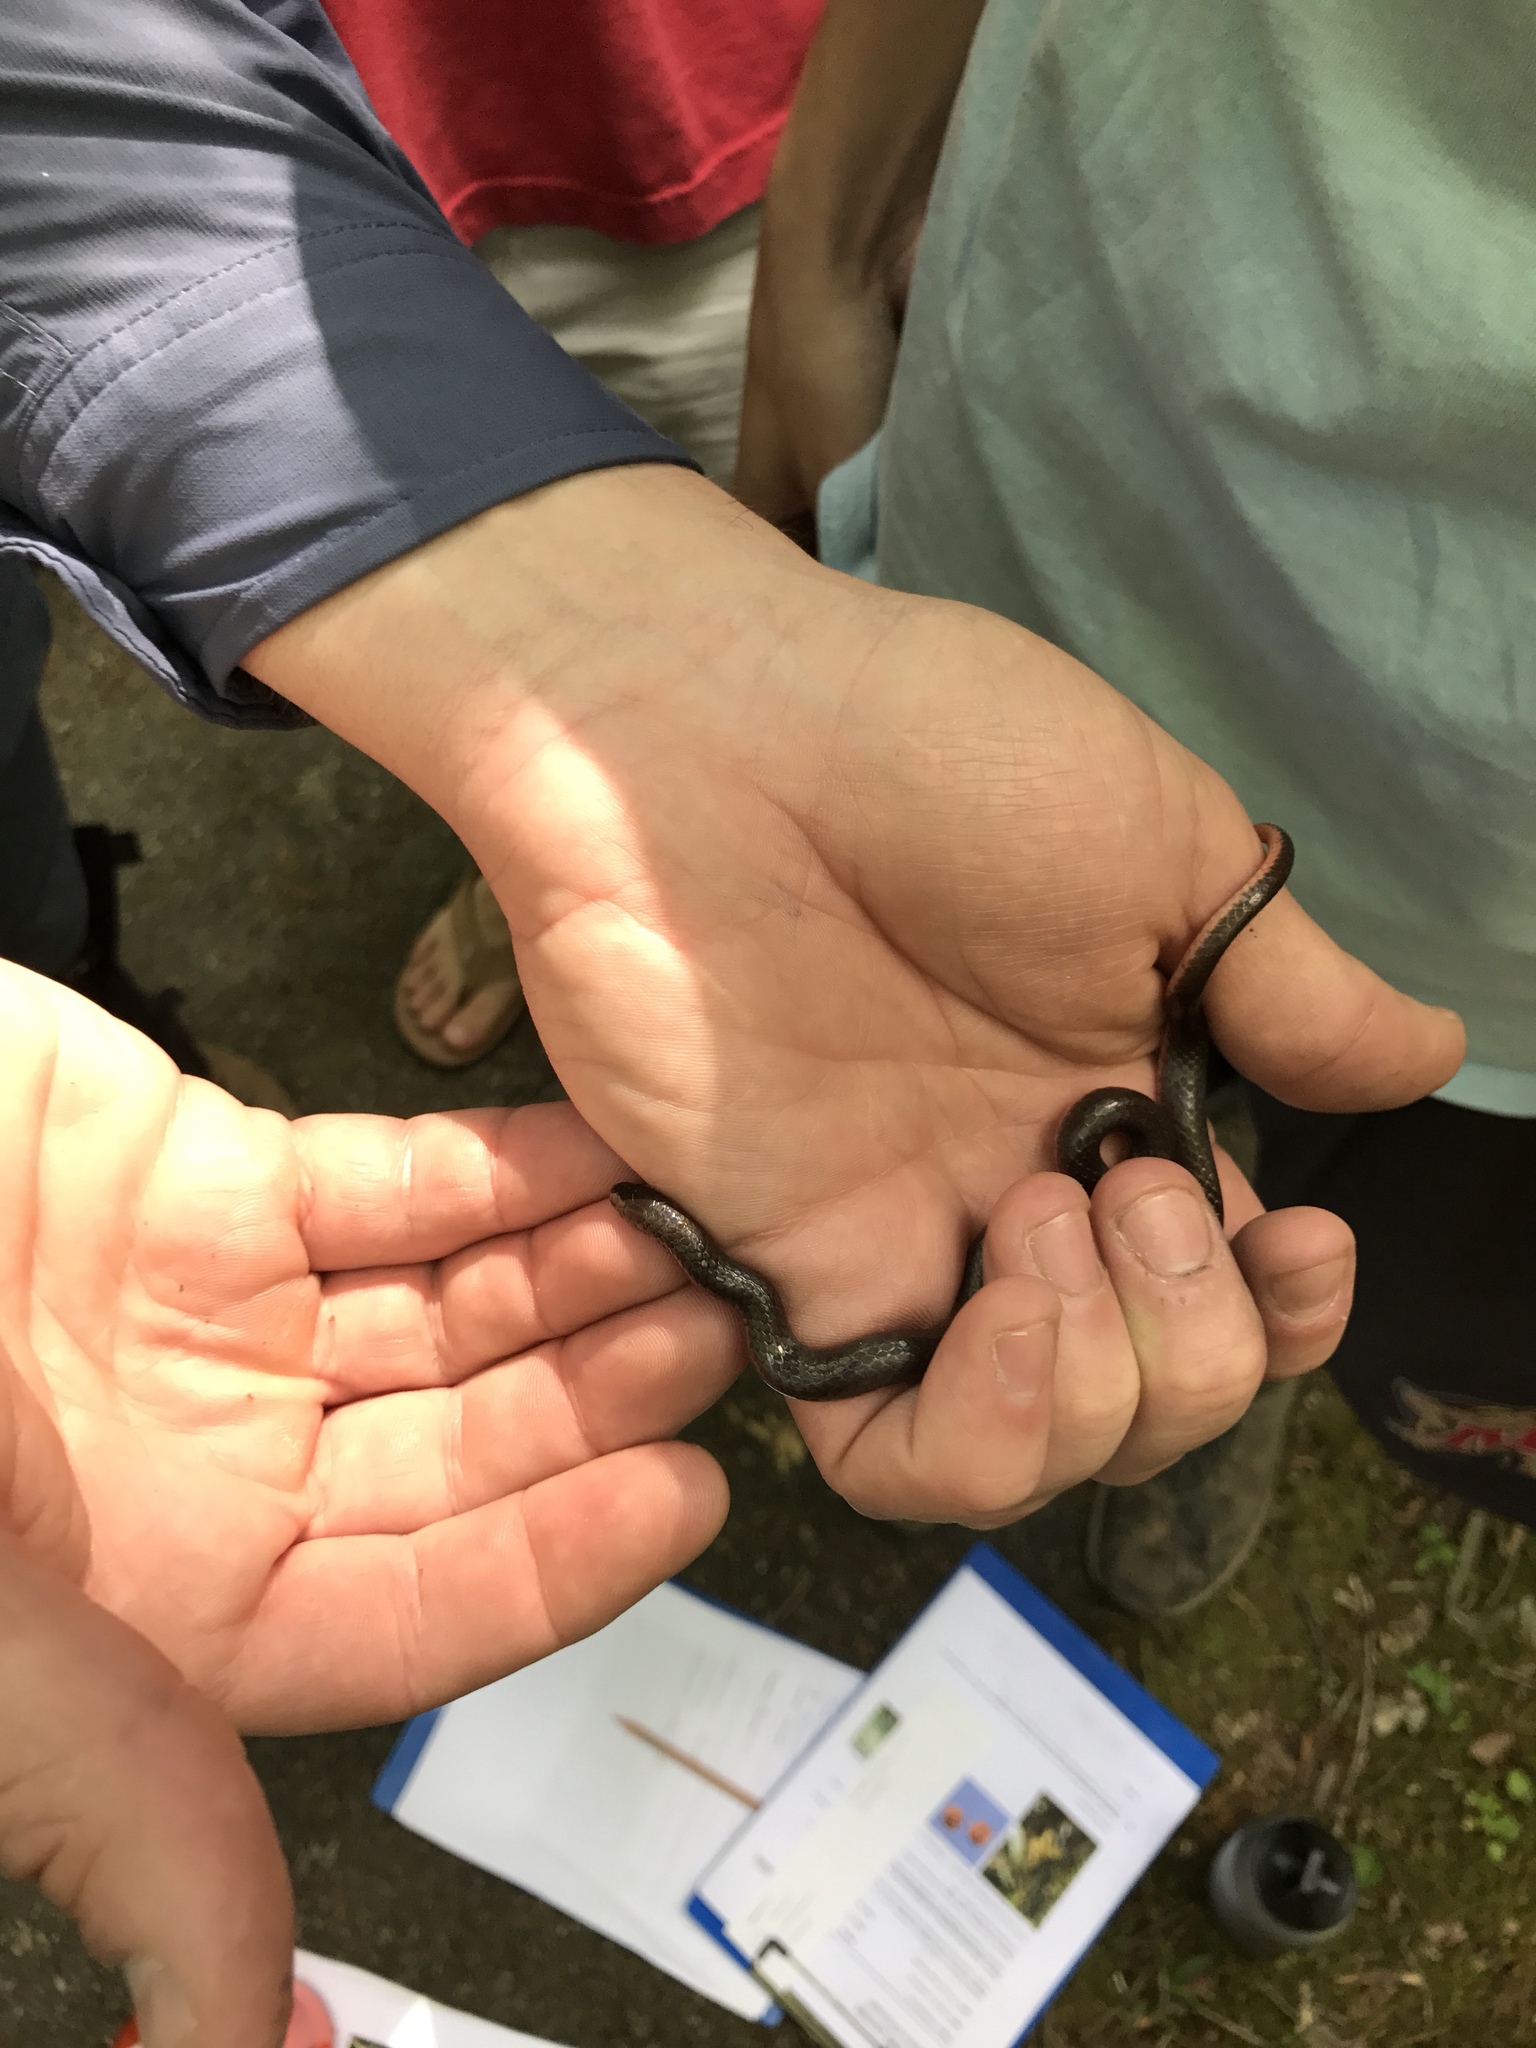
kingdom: Animalia
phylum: Chordata
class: Squamata
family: Colubridae
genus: Carphophis
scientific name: Carphophis amoenus
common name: Eastern worm snake
